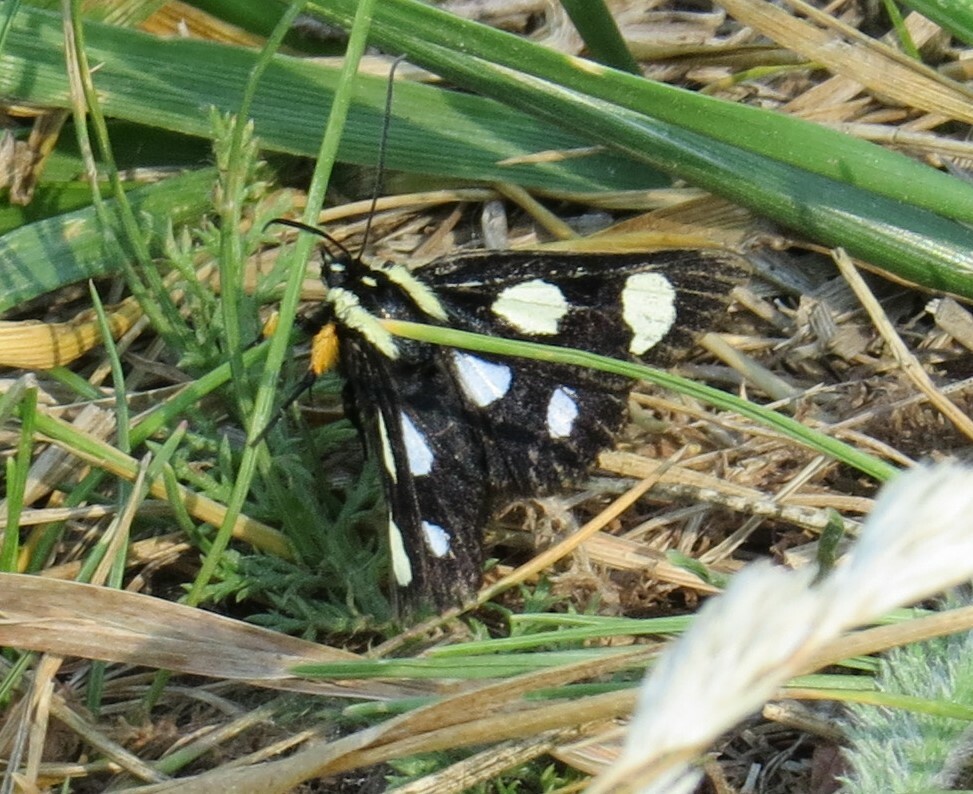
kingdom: Animalia
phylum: Arthropoda
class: Insecta
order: Lepidoptera
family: Noctuidae
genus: Alypia
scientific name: Alypia octomaculata
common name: Eight-spotted forester
